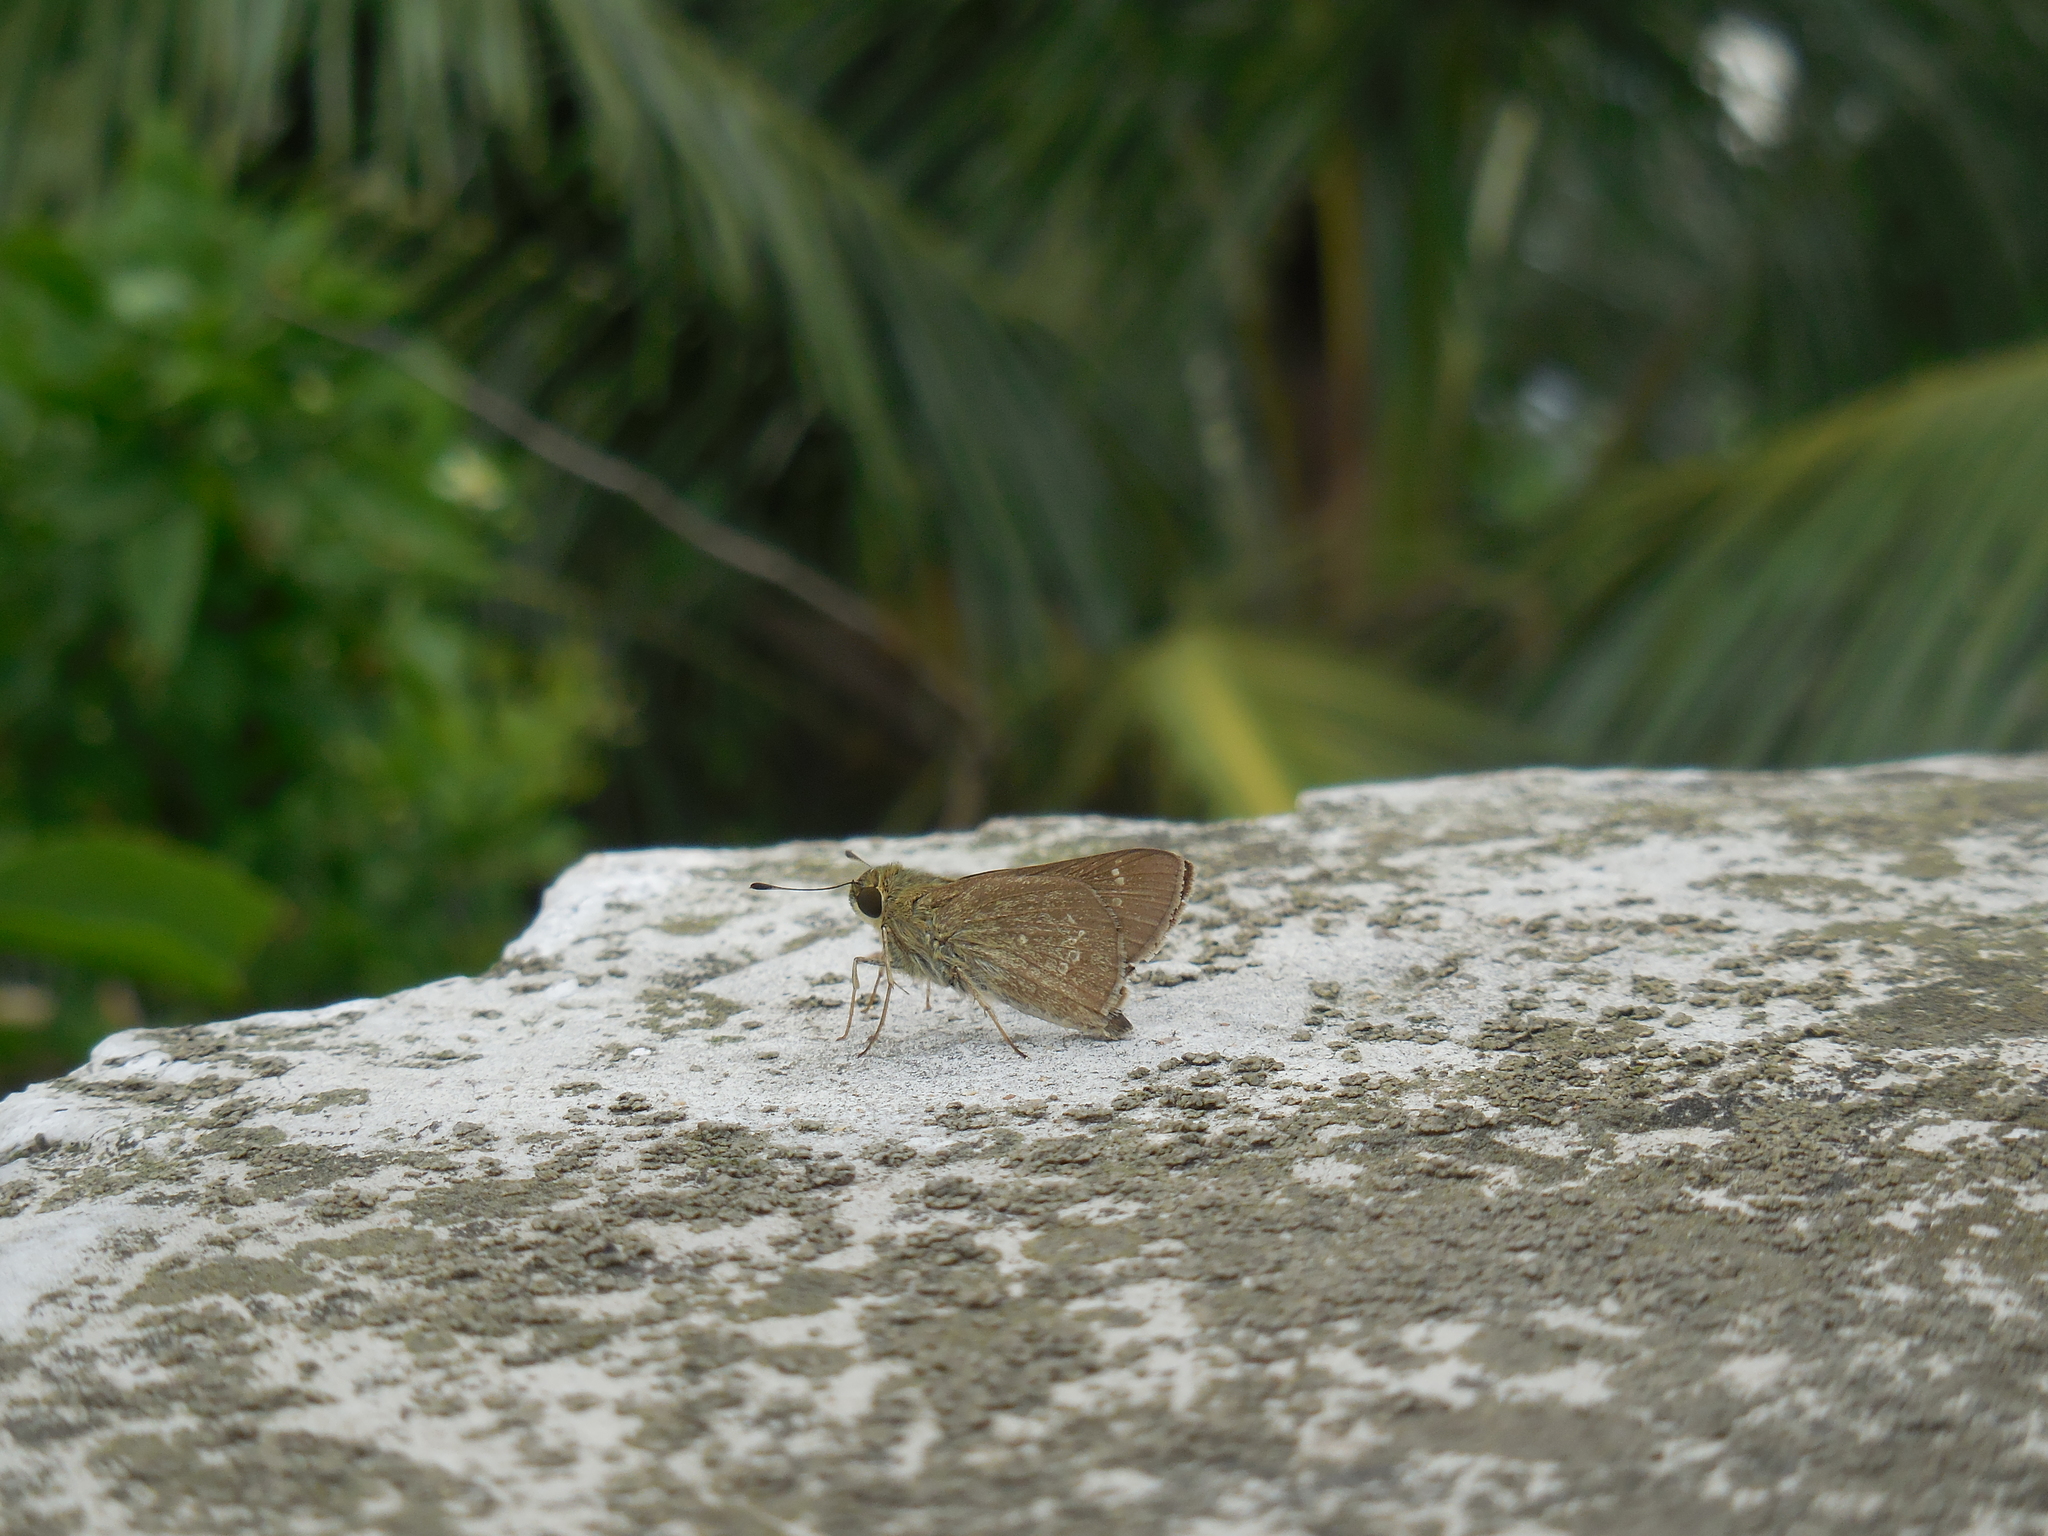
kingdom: Animalia
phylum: Arthropoda
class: Insecta
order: Lepidoptera
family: Hesperiidae
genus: Pelopidas
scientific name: Pelopidas mathias
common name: Black-branded swift
